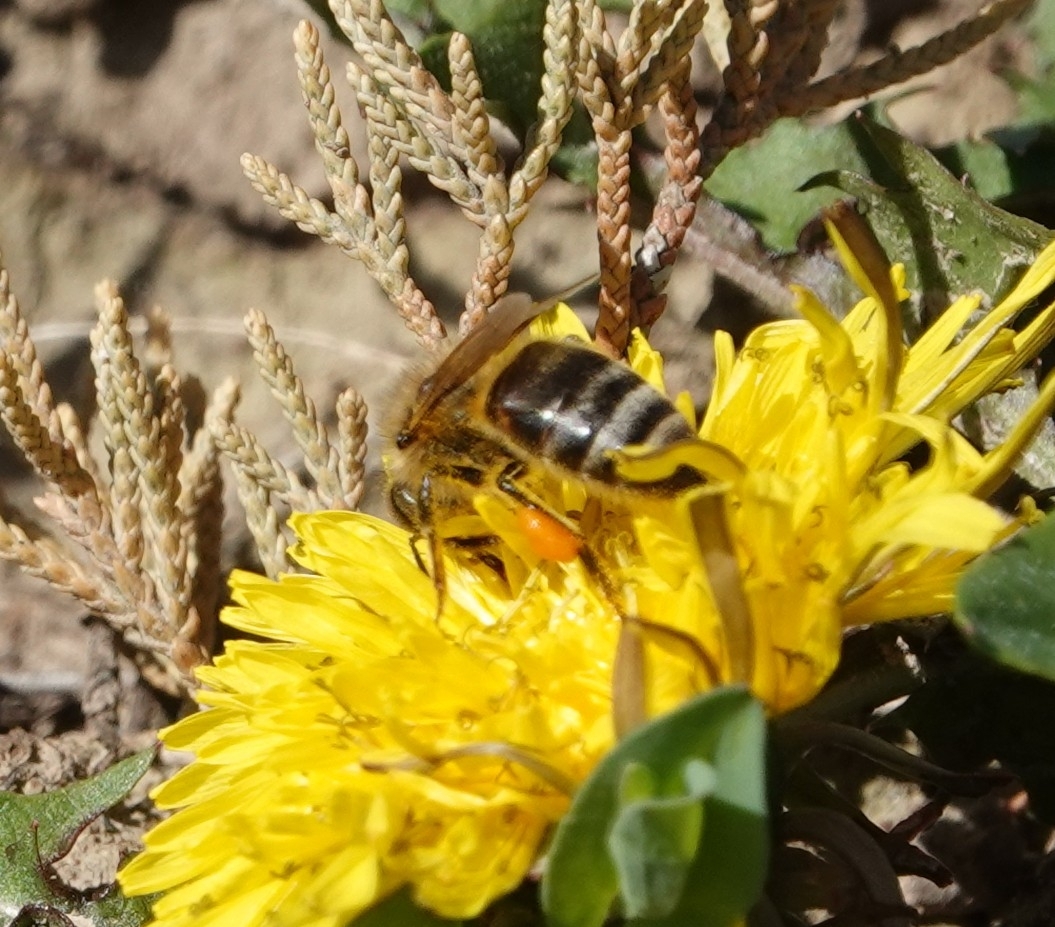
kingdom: Animalia
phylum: Arthropoda
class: Insecta
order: Hymenoptera
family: Apidae
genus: Apis
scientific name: Apis mellifera
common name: Honey bee
